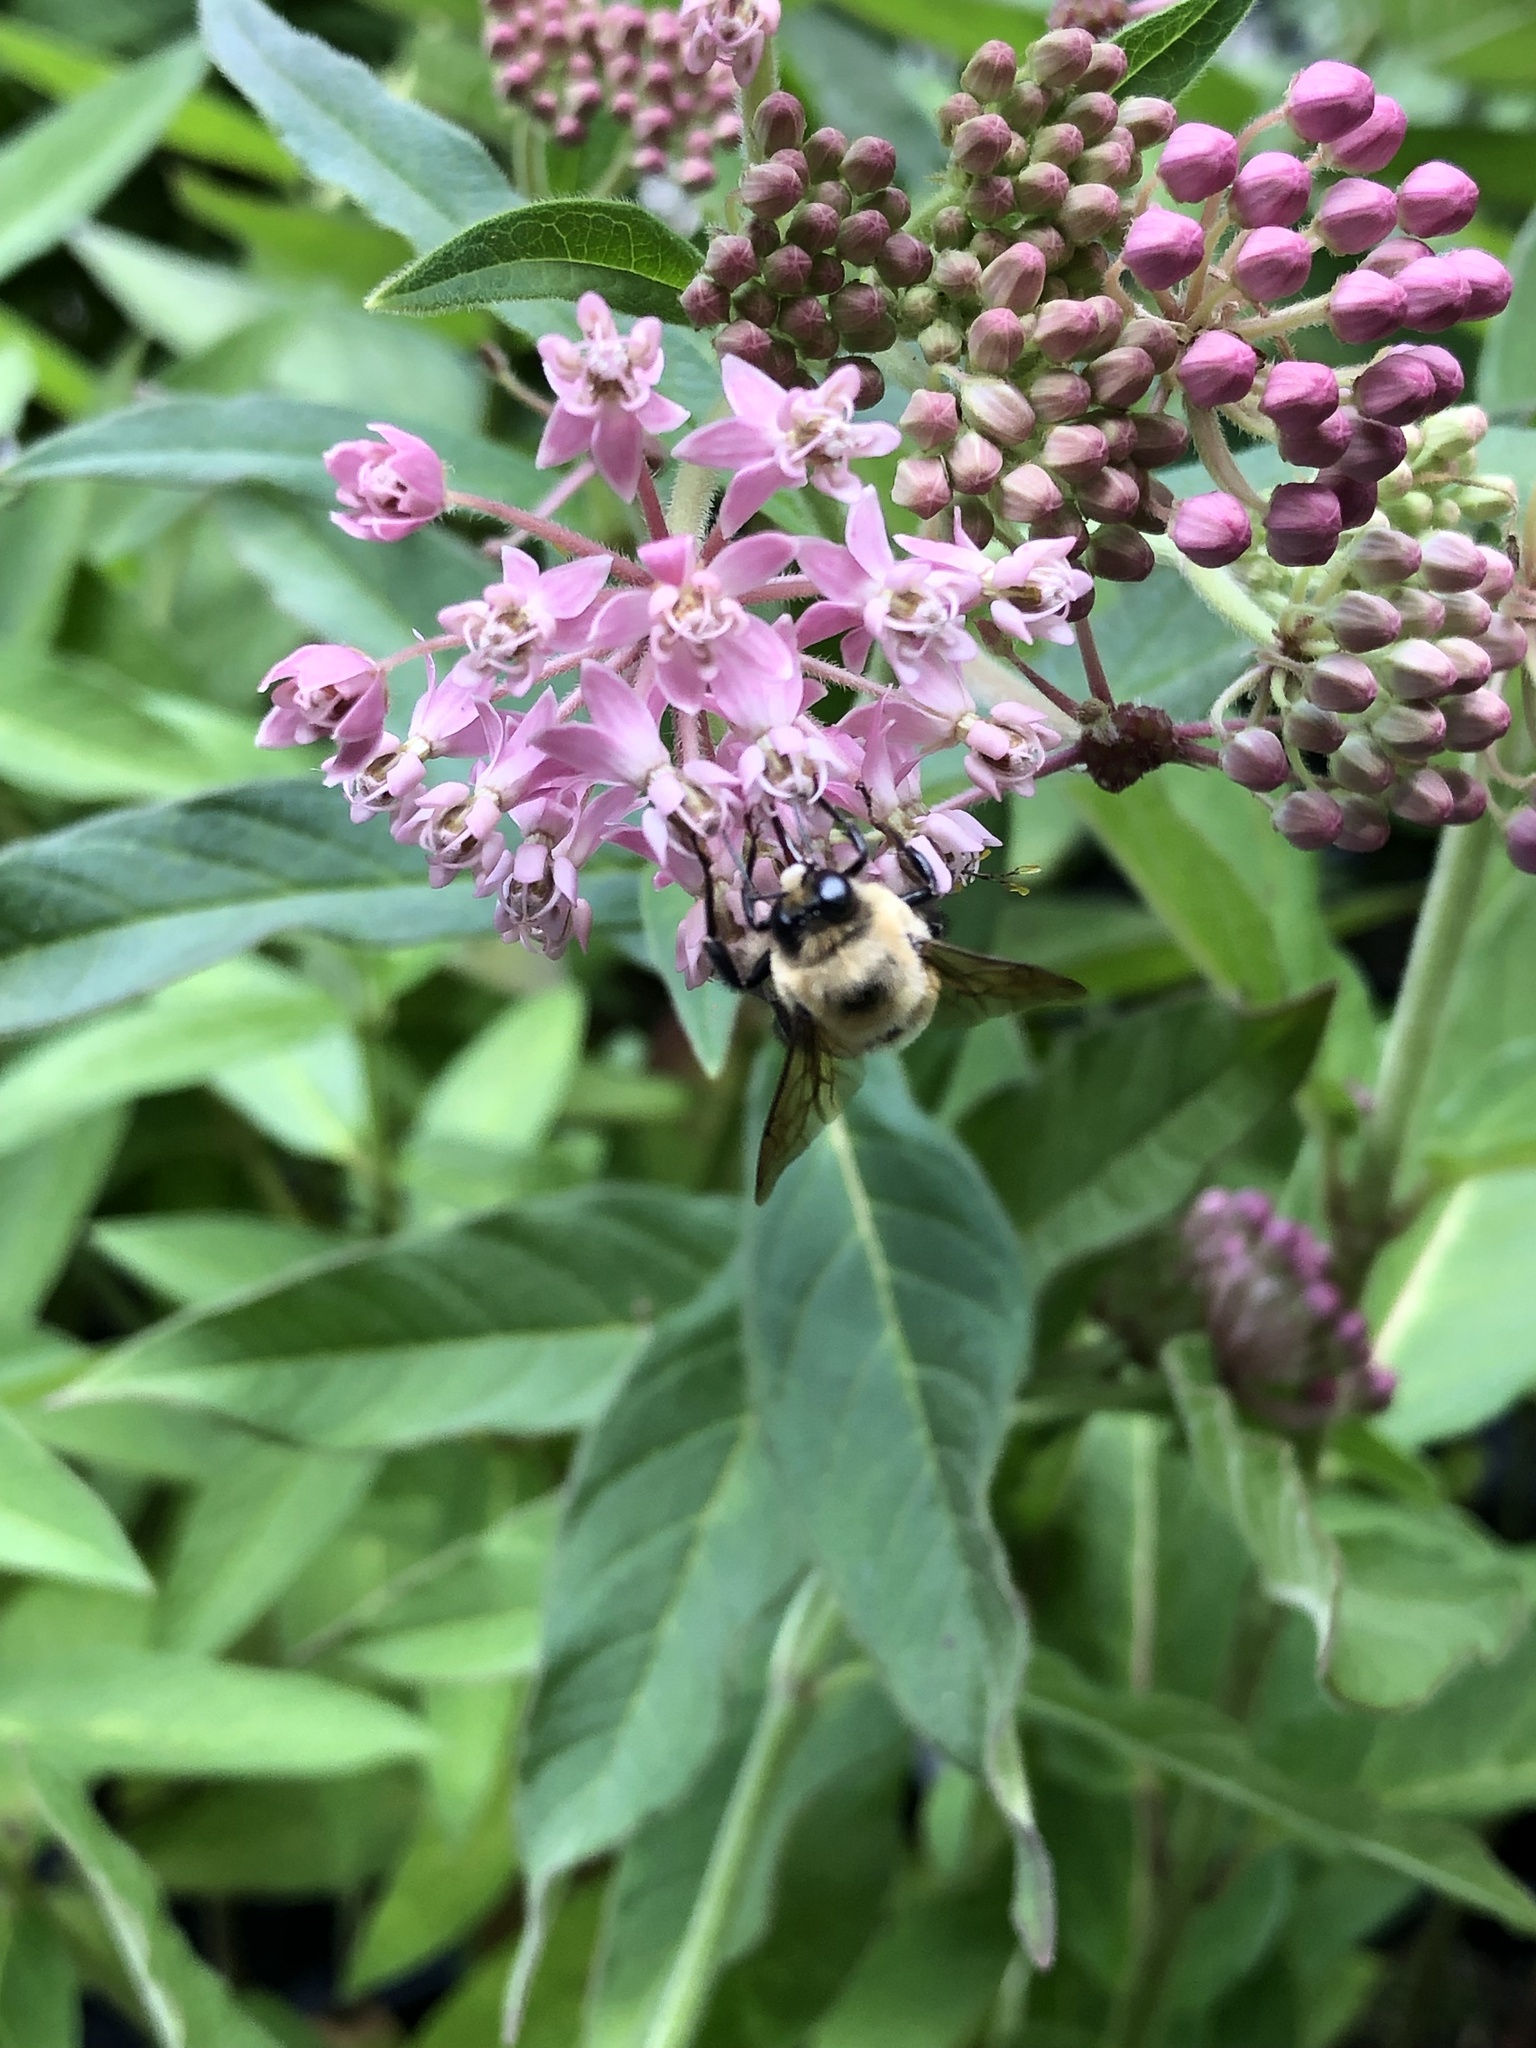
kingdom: Animalia
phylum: Arthropoda
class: Insecta
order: Hymenoptera
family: Apidae
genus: Bombus
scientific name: Bombus griseocollis
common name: Brown-belted bumble bee
